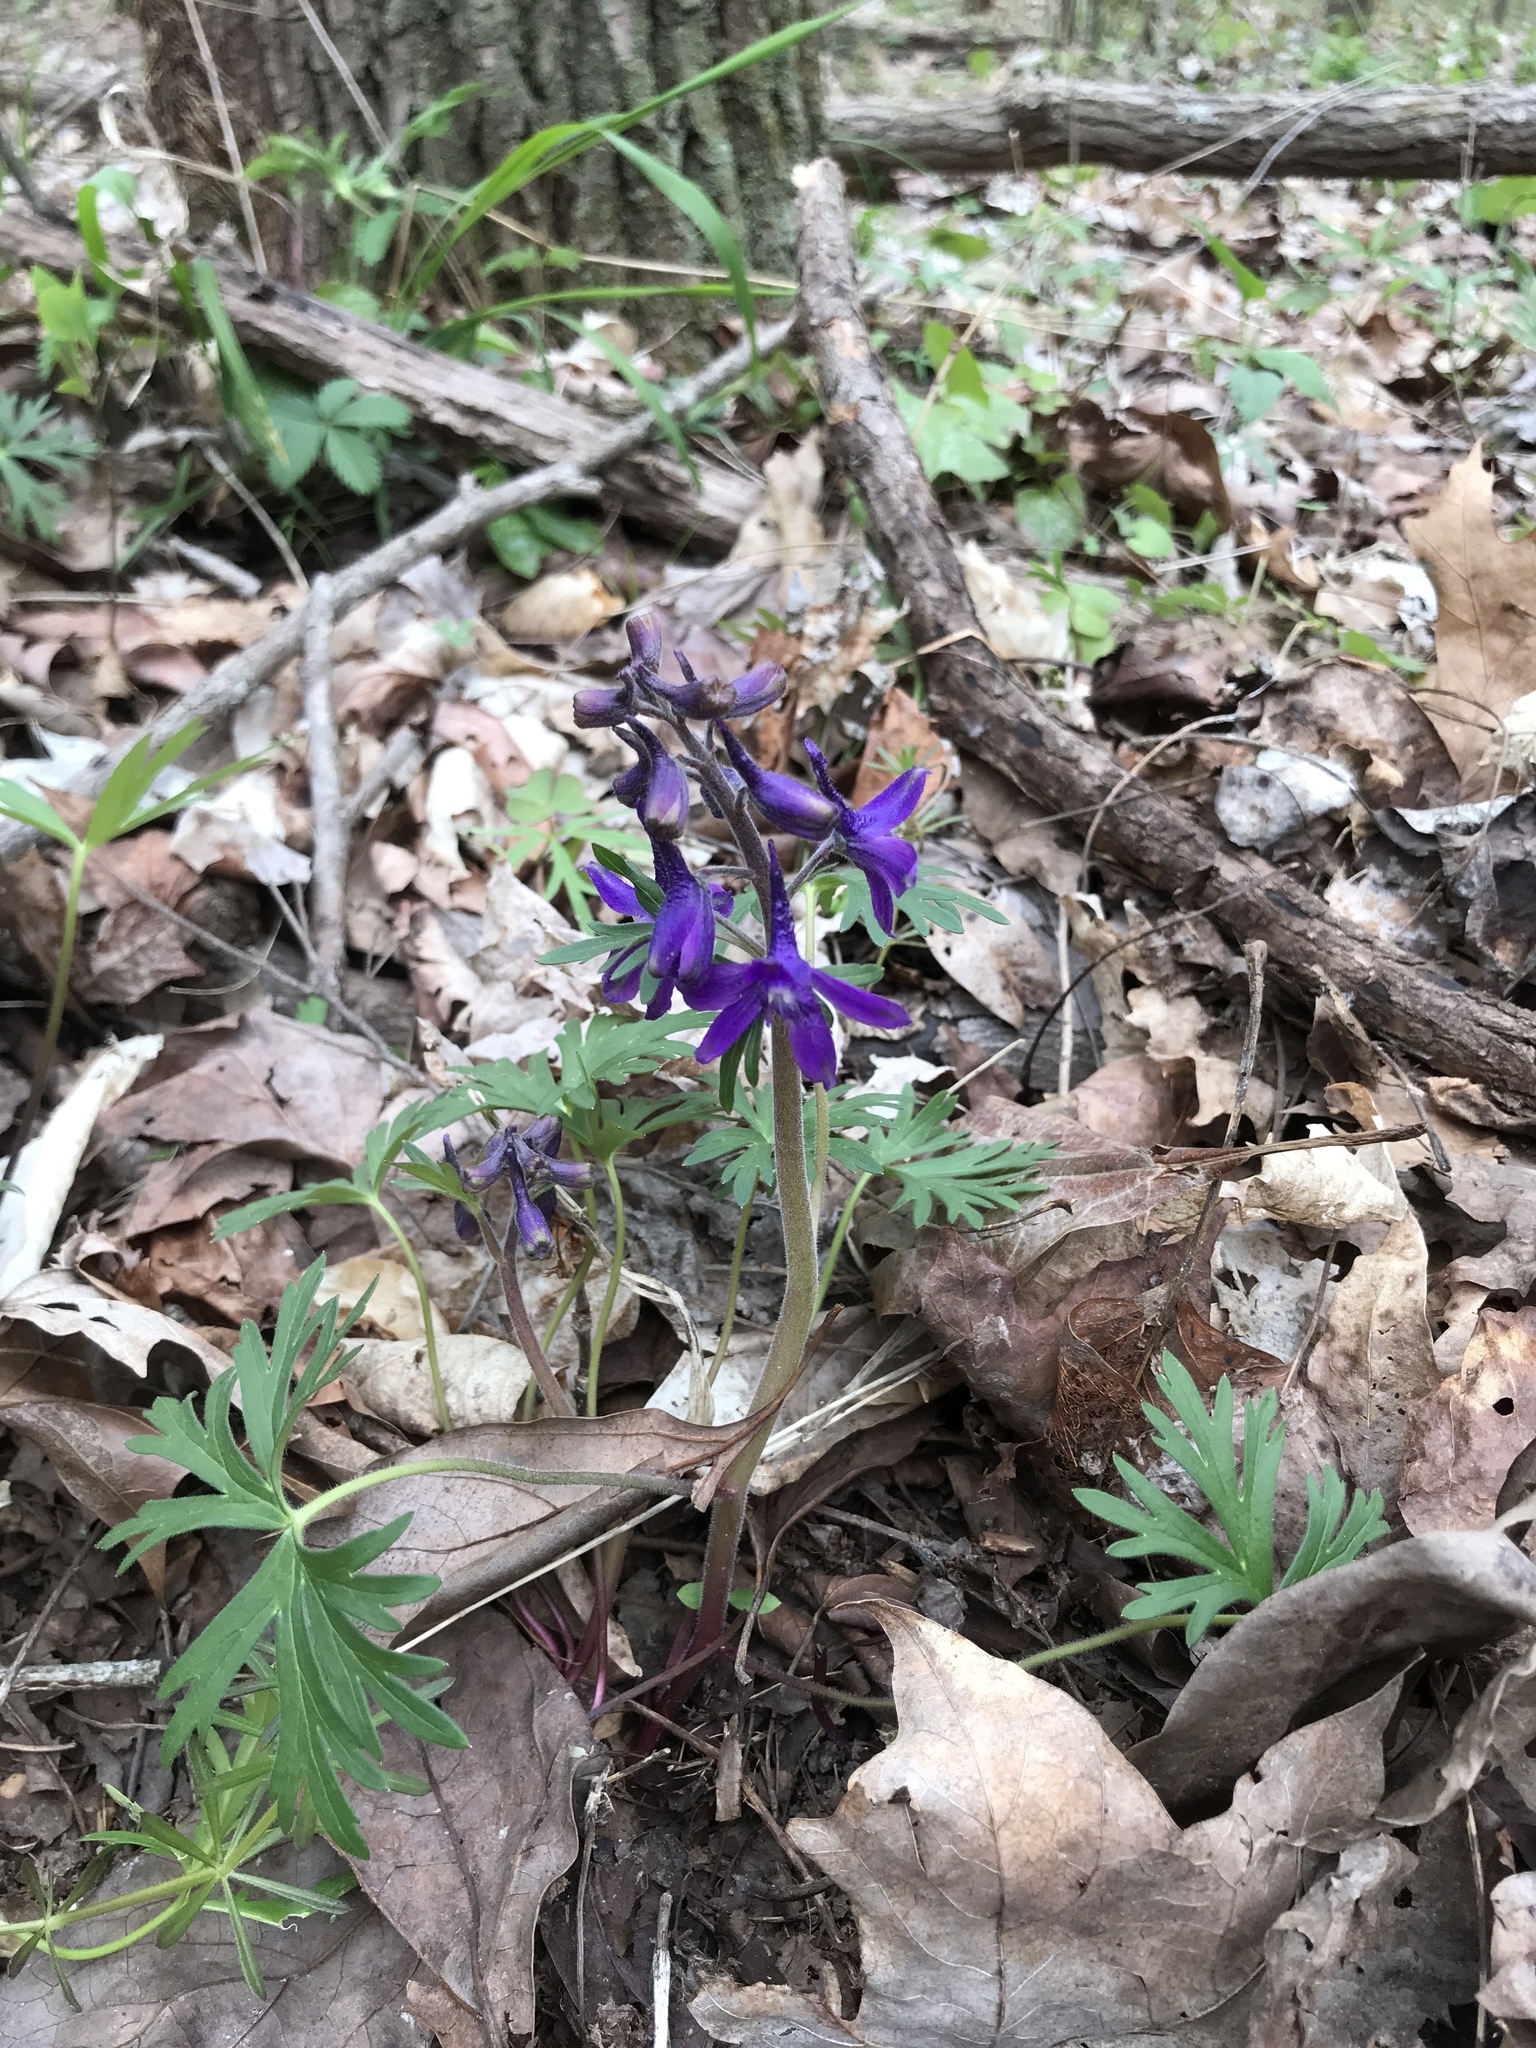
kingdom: Plantae
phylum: Tracheophyta
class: Magnoliopsida
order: Ranunculales
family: Ranunculaceae
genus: Delphinium
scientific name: Delphinium tricorne
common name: Dwarf larkspur
